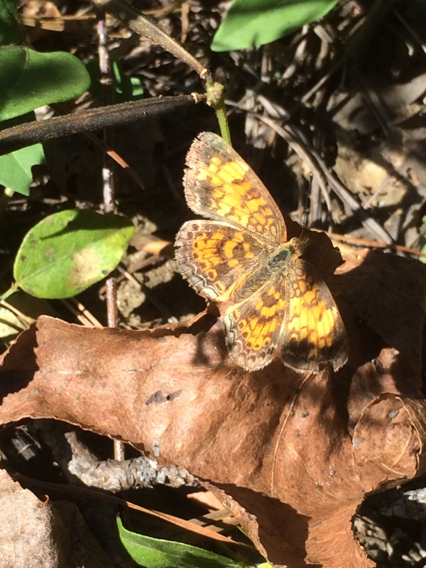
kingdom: Animalia
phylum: Arthropoda
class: Insecta
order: Lepidoptera
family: Nymphalidae
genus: Phyciodes
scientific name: Phyciodes tharos
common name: Pearl crescent
